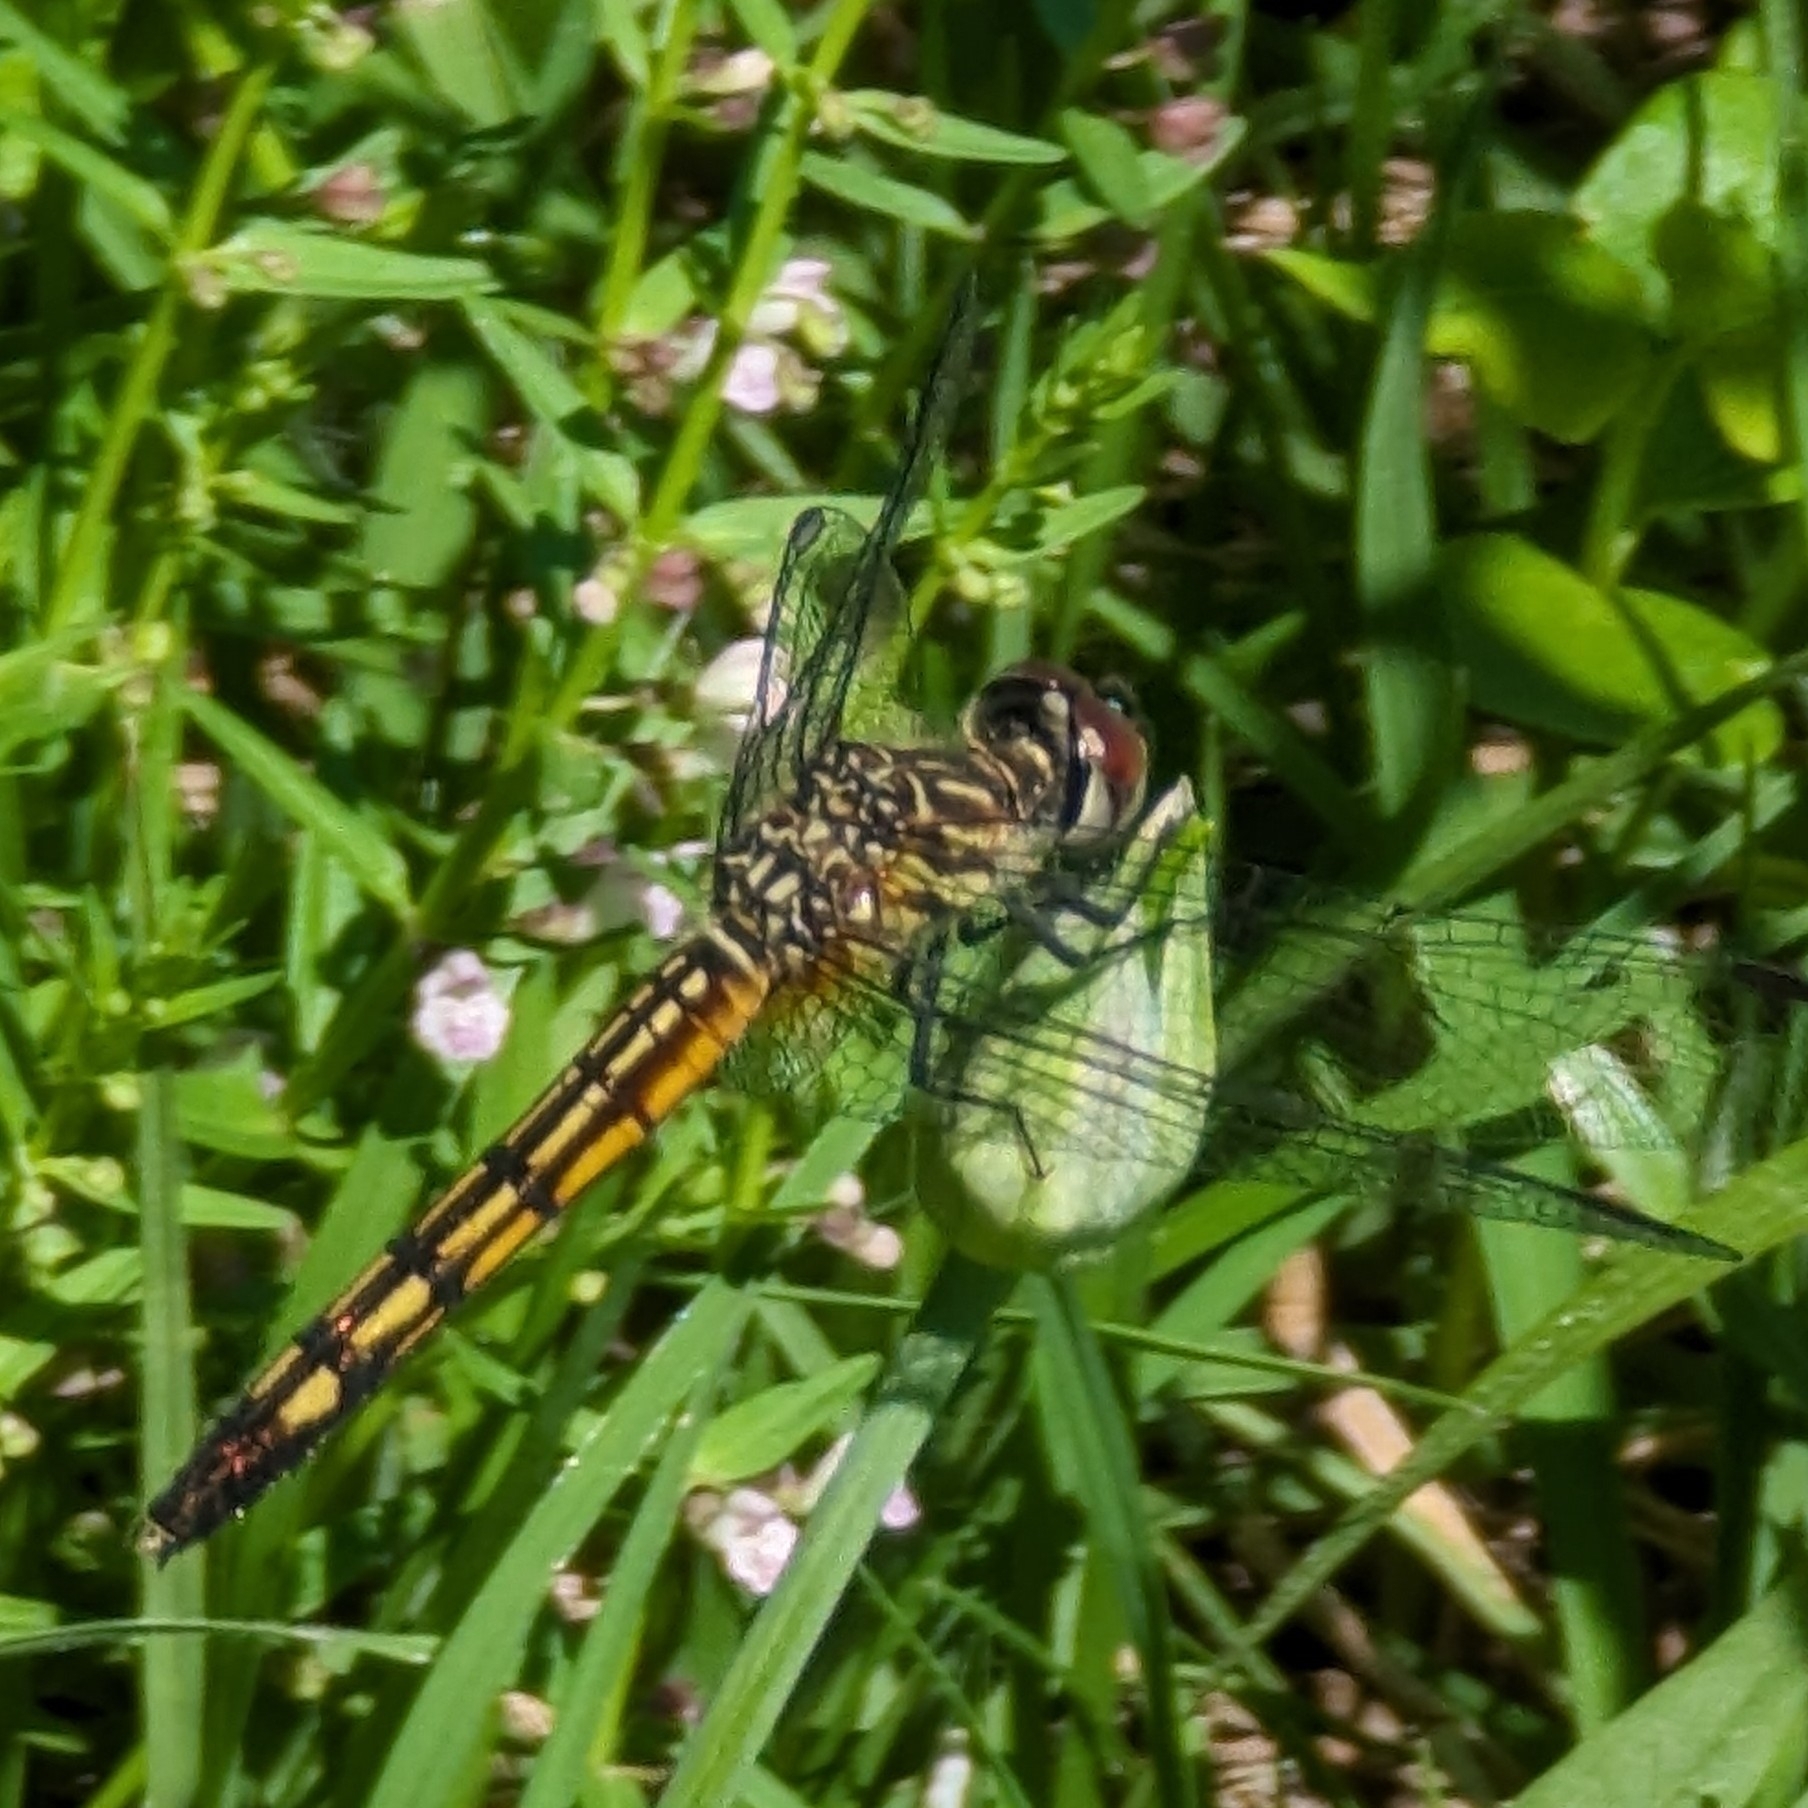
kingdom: Animalia
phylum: Arthropoda
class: Insecta
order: Odonata
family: Libellulidae
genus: Pachydiplax
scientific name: Pachydiplax longipennis
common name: Blue dasher
